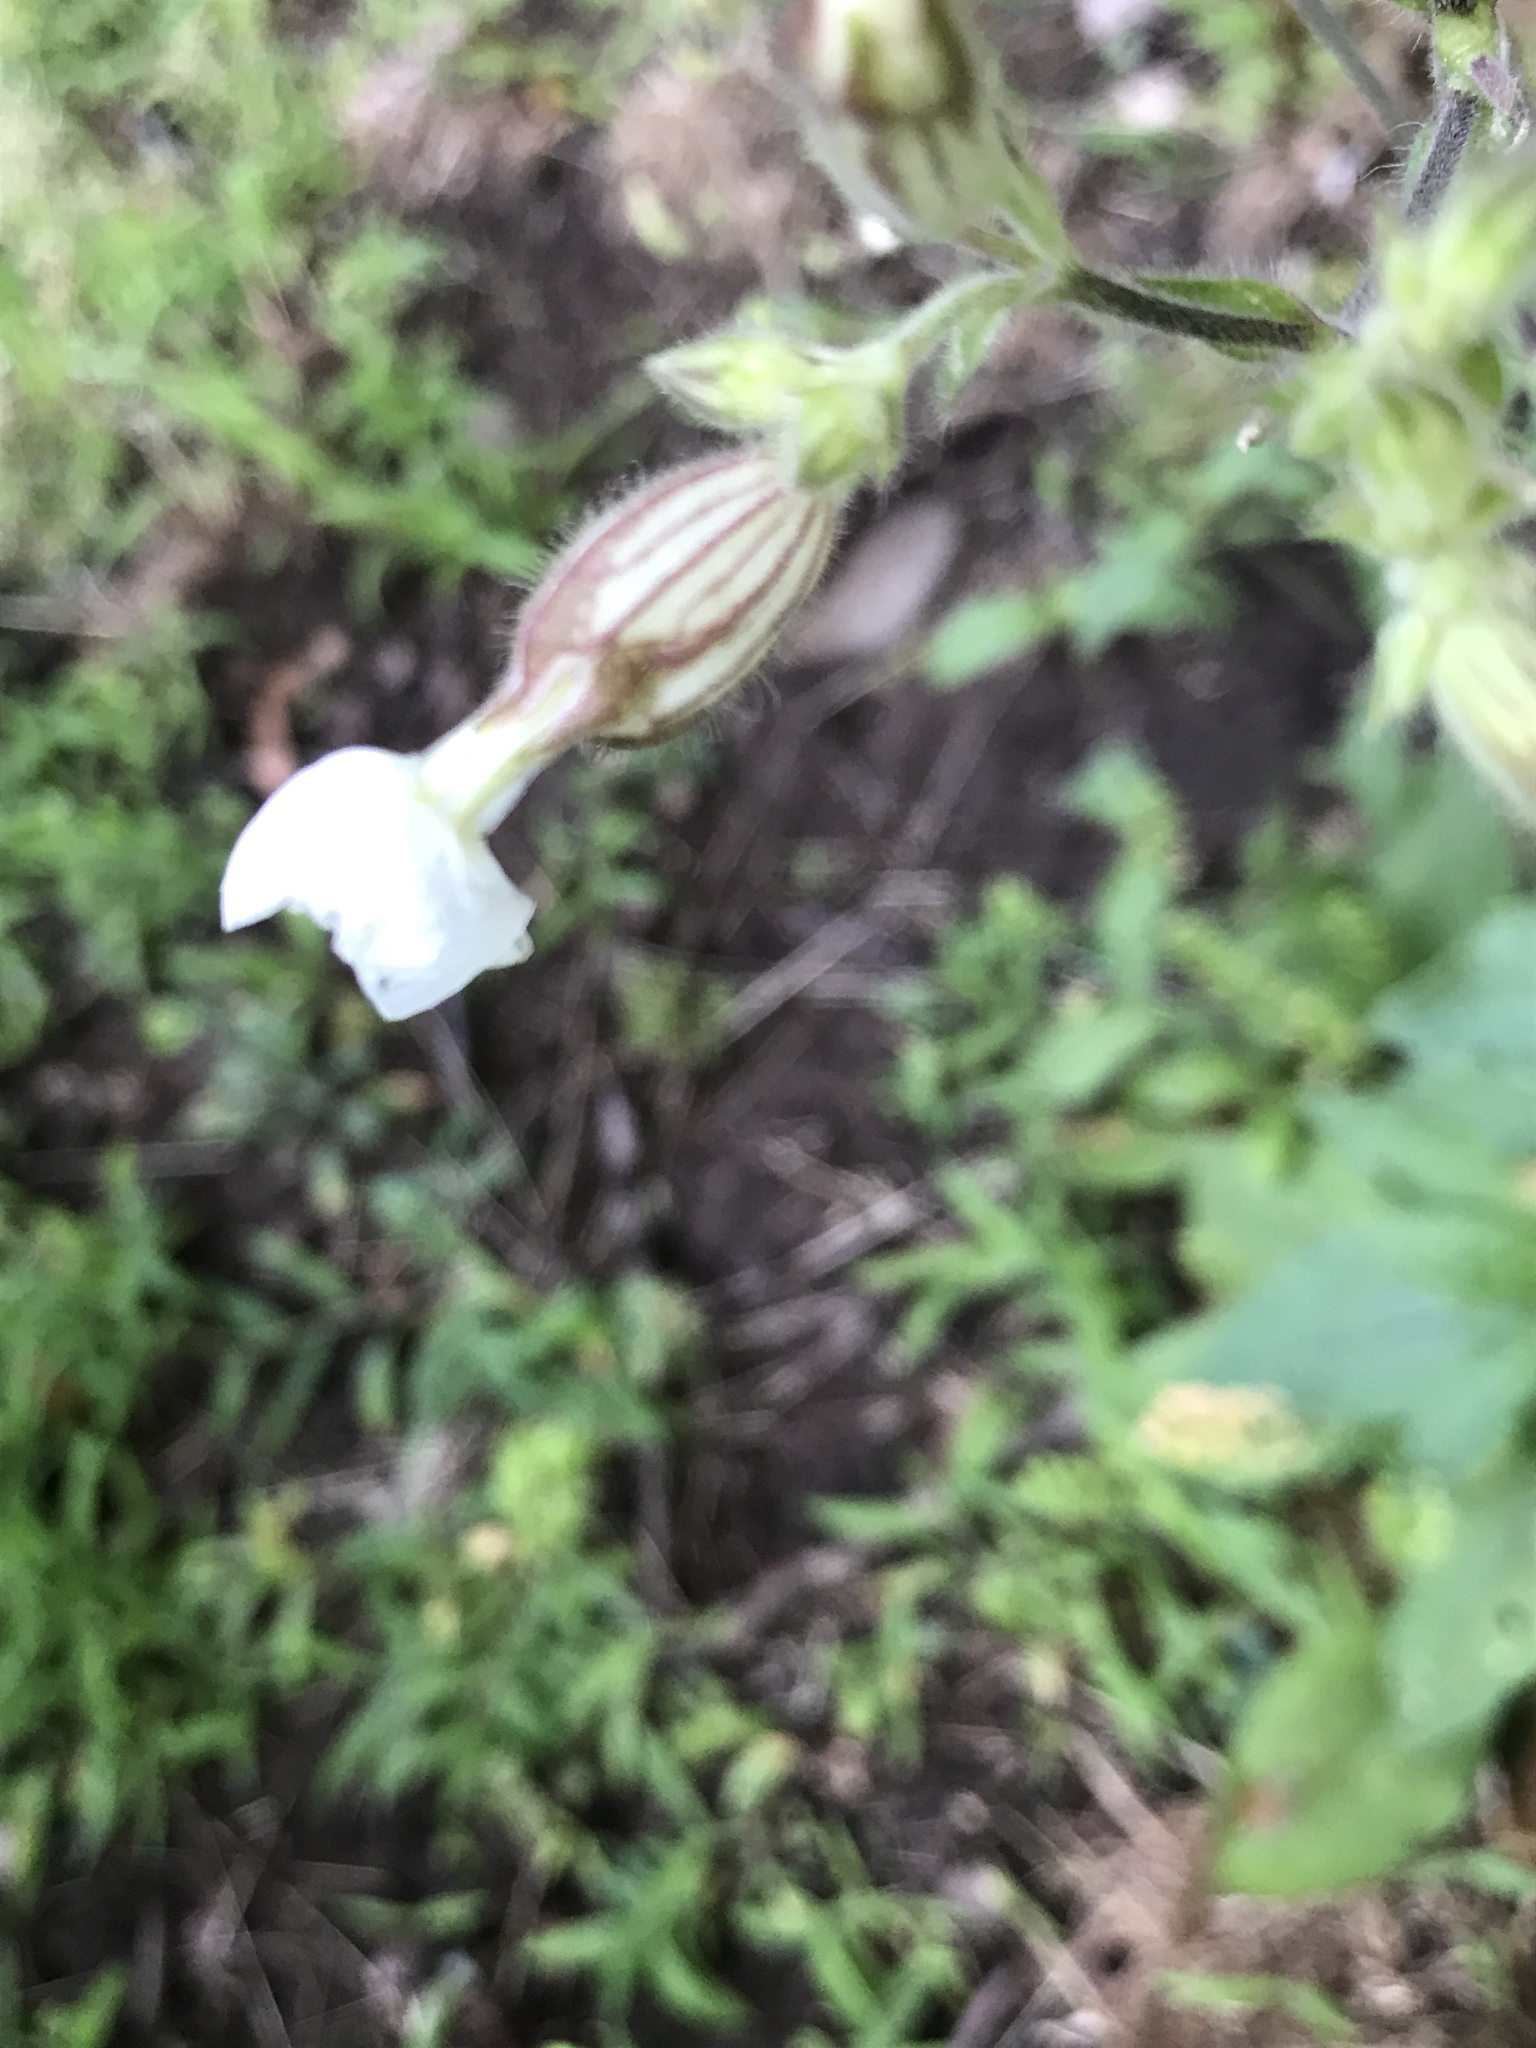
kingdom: Plantae
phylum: Tracheophyta
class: Magnoliopsida
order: Caryophyllales
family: Caryophyllaceae
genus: Silene
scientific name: Silene latifolia
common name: White campion
